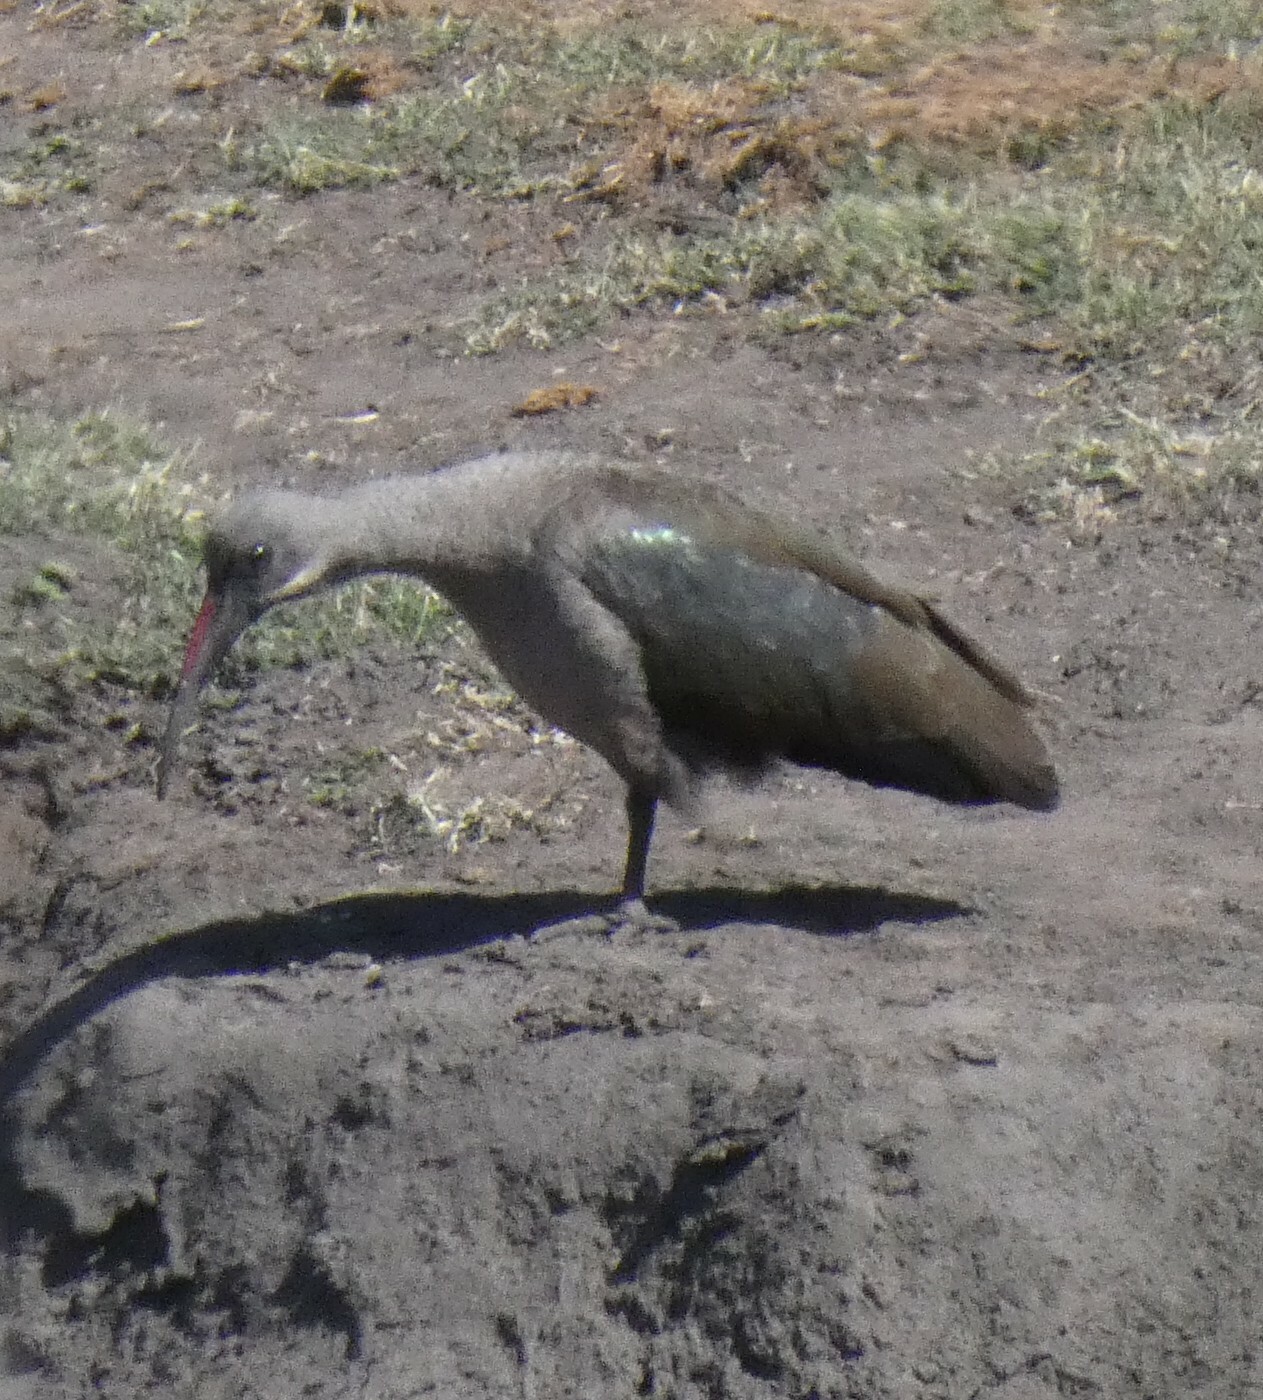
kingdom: Animalia
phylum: Chordata
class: Aves
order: Pelecaniformes
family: Threskiornithidae
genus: Bostrychia
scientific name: Bostrychia hagedash
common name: Hadada ibis
